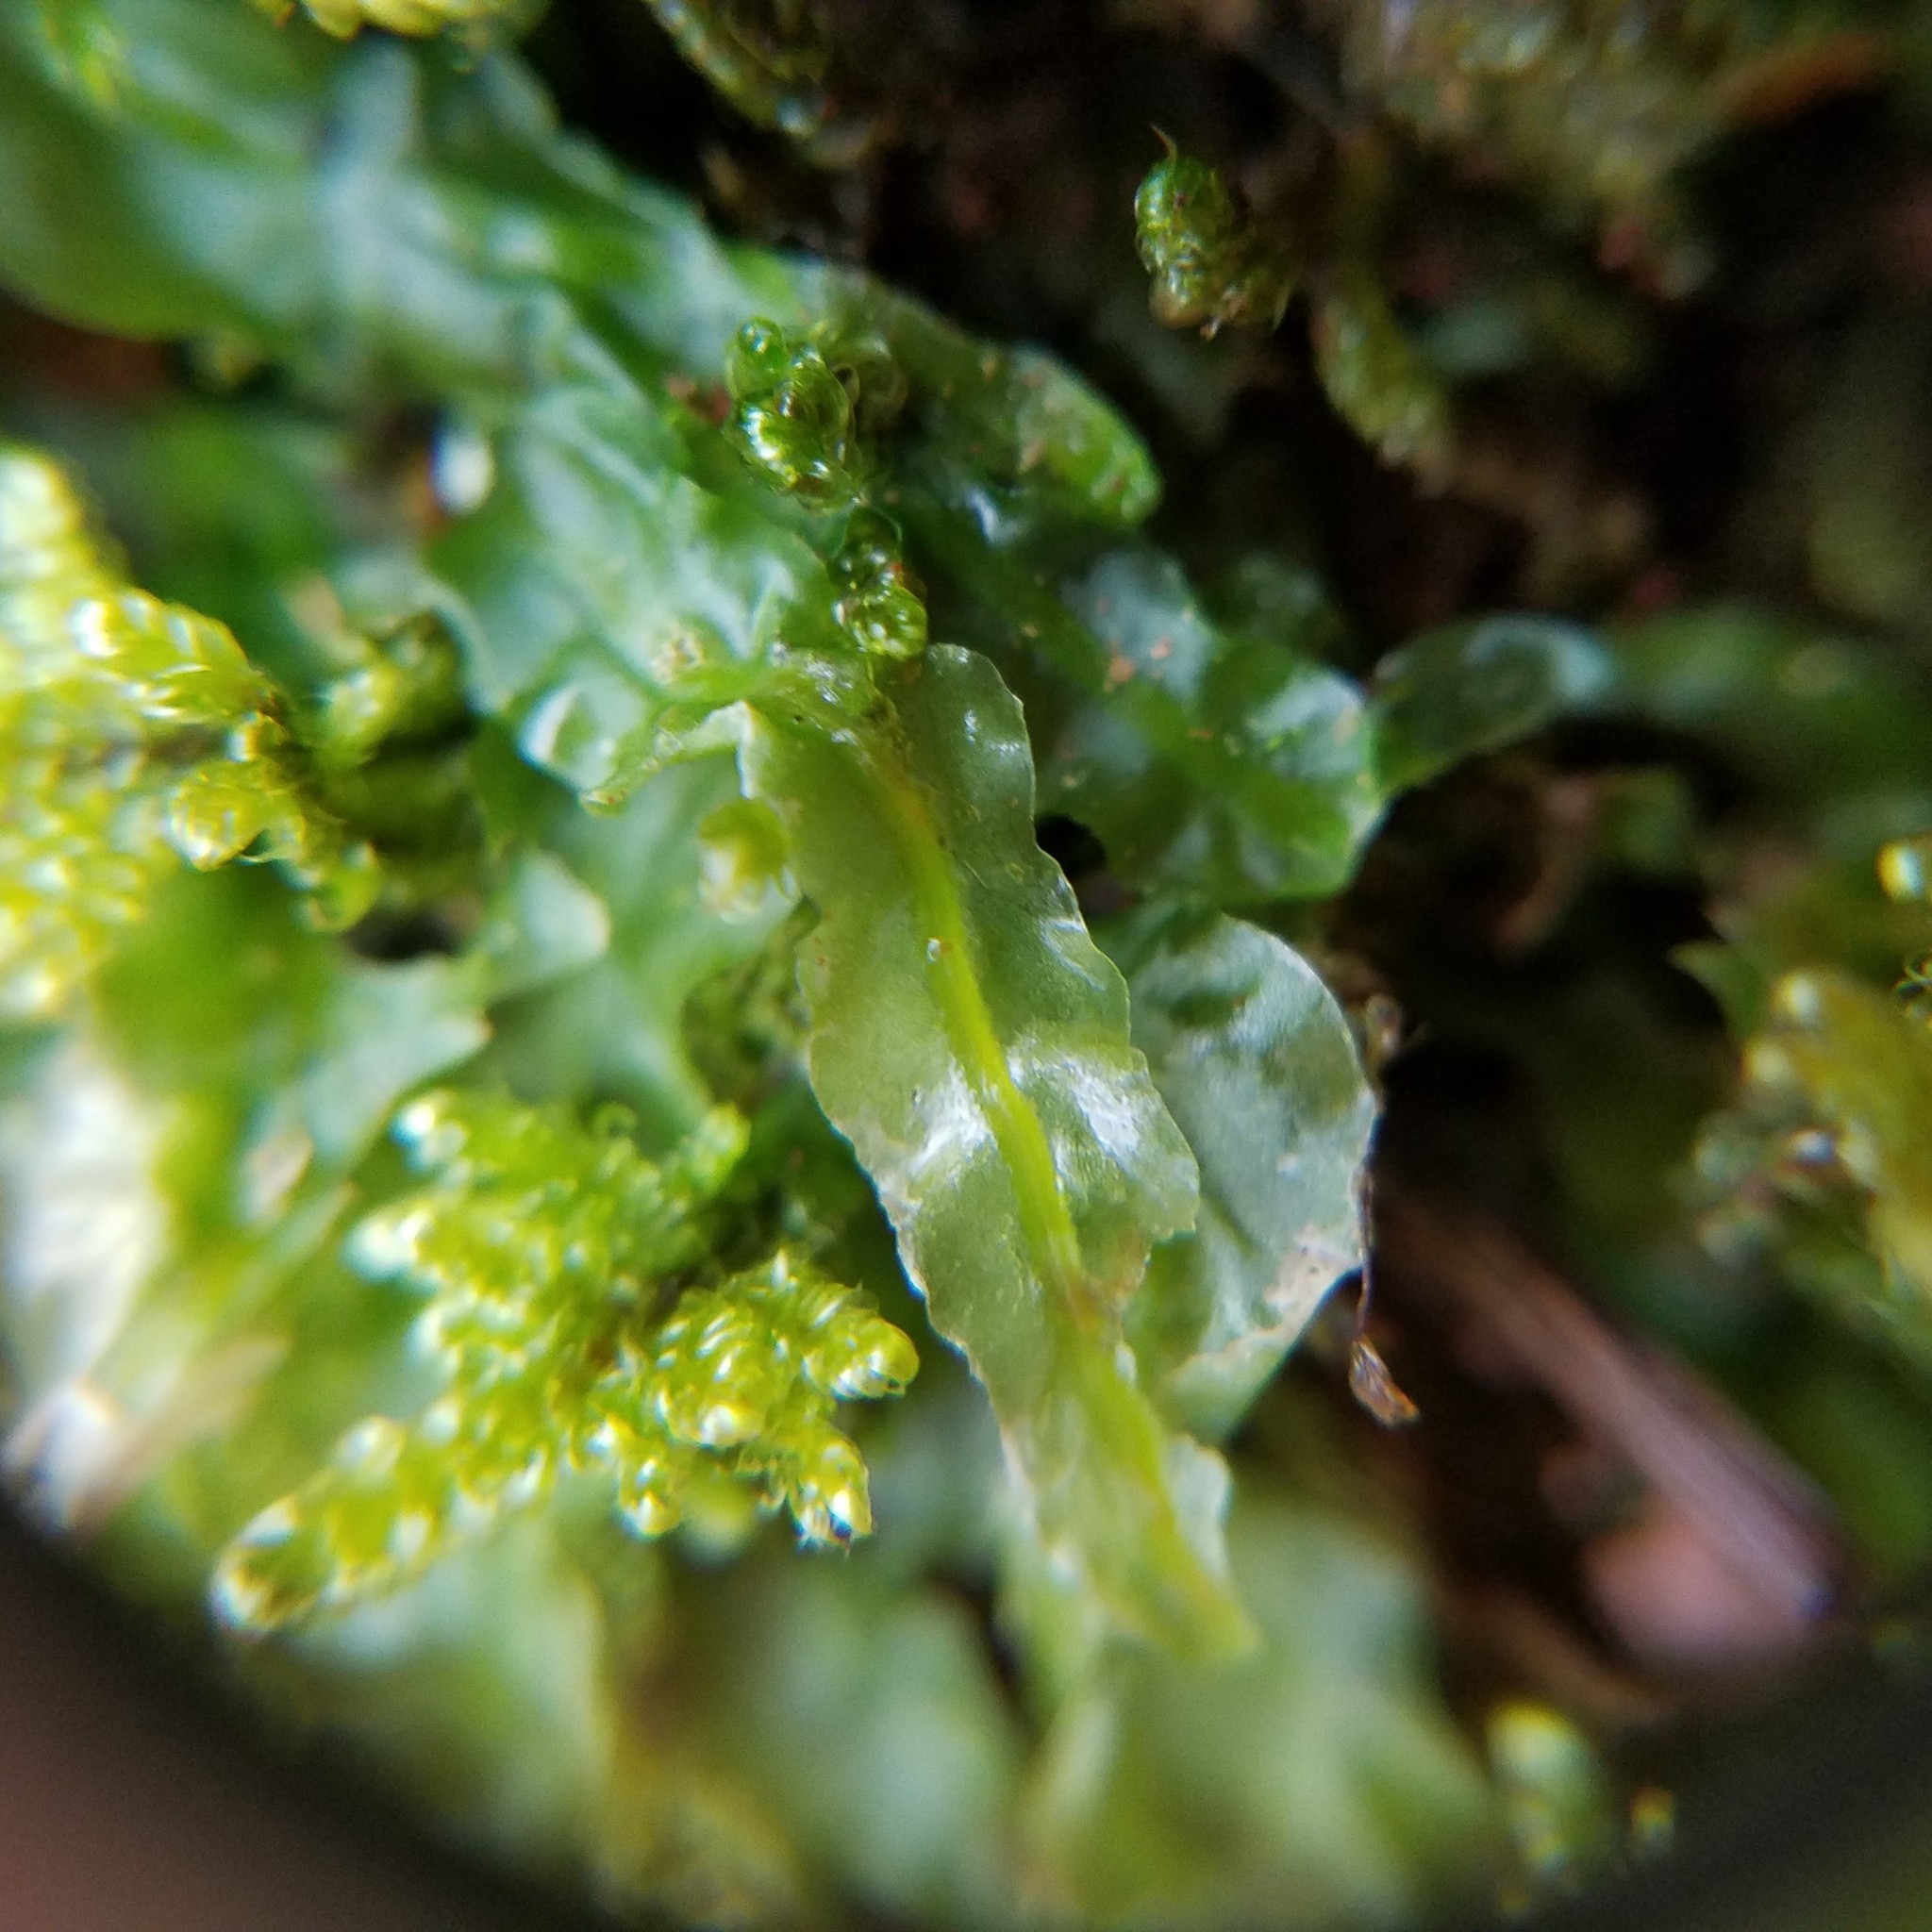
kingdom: Plantae
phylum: Marchantiophyta
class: Jungermanniopsida
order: Pallaviciniales
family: Pallaviciniaceae
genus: Pallavicinia
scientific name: Pallavicinia lyellii
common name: Veilwort
